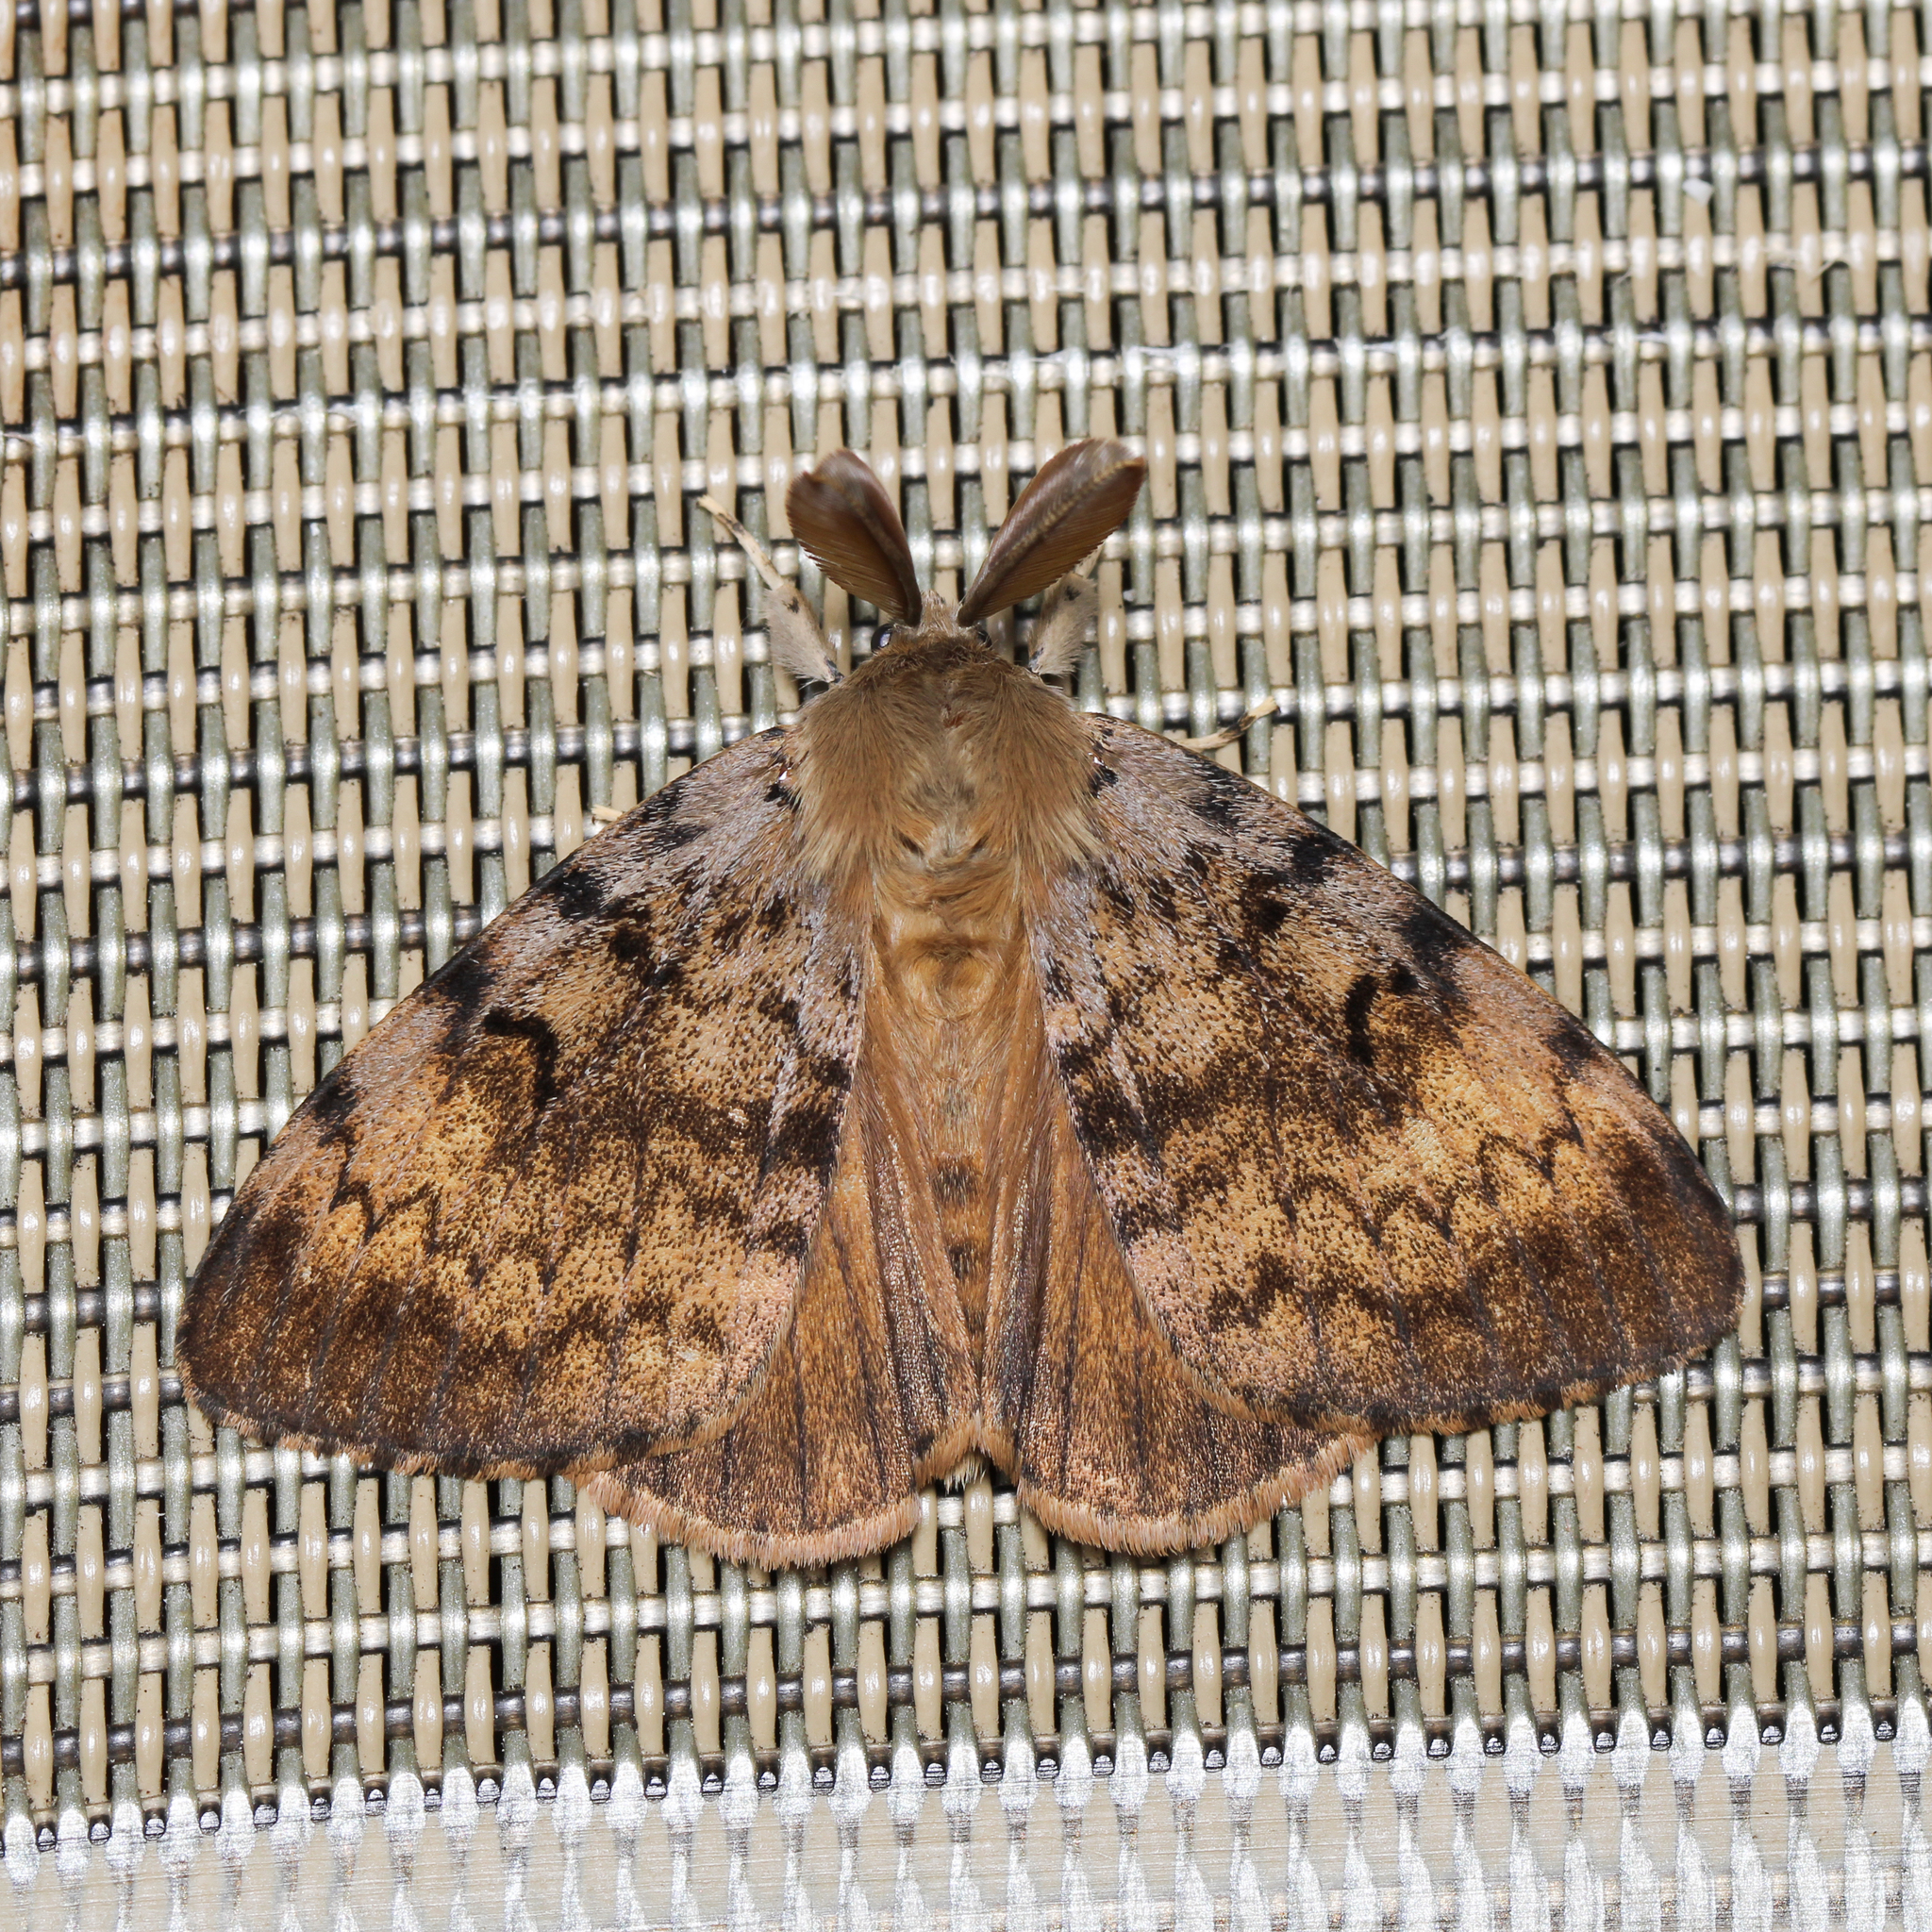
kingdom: Animalia
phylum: Arthropoda
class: Insecta
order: Lepidoptera
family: Erebidae
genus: Lymantria
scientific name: Lymantria dispar
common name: Gypsy moth
